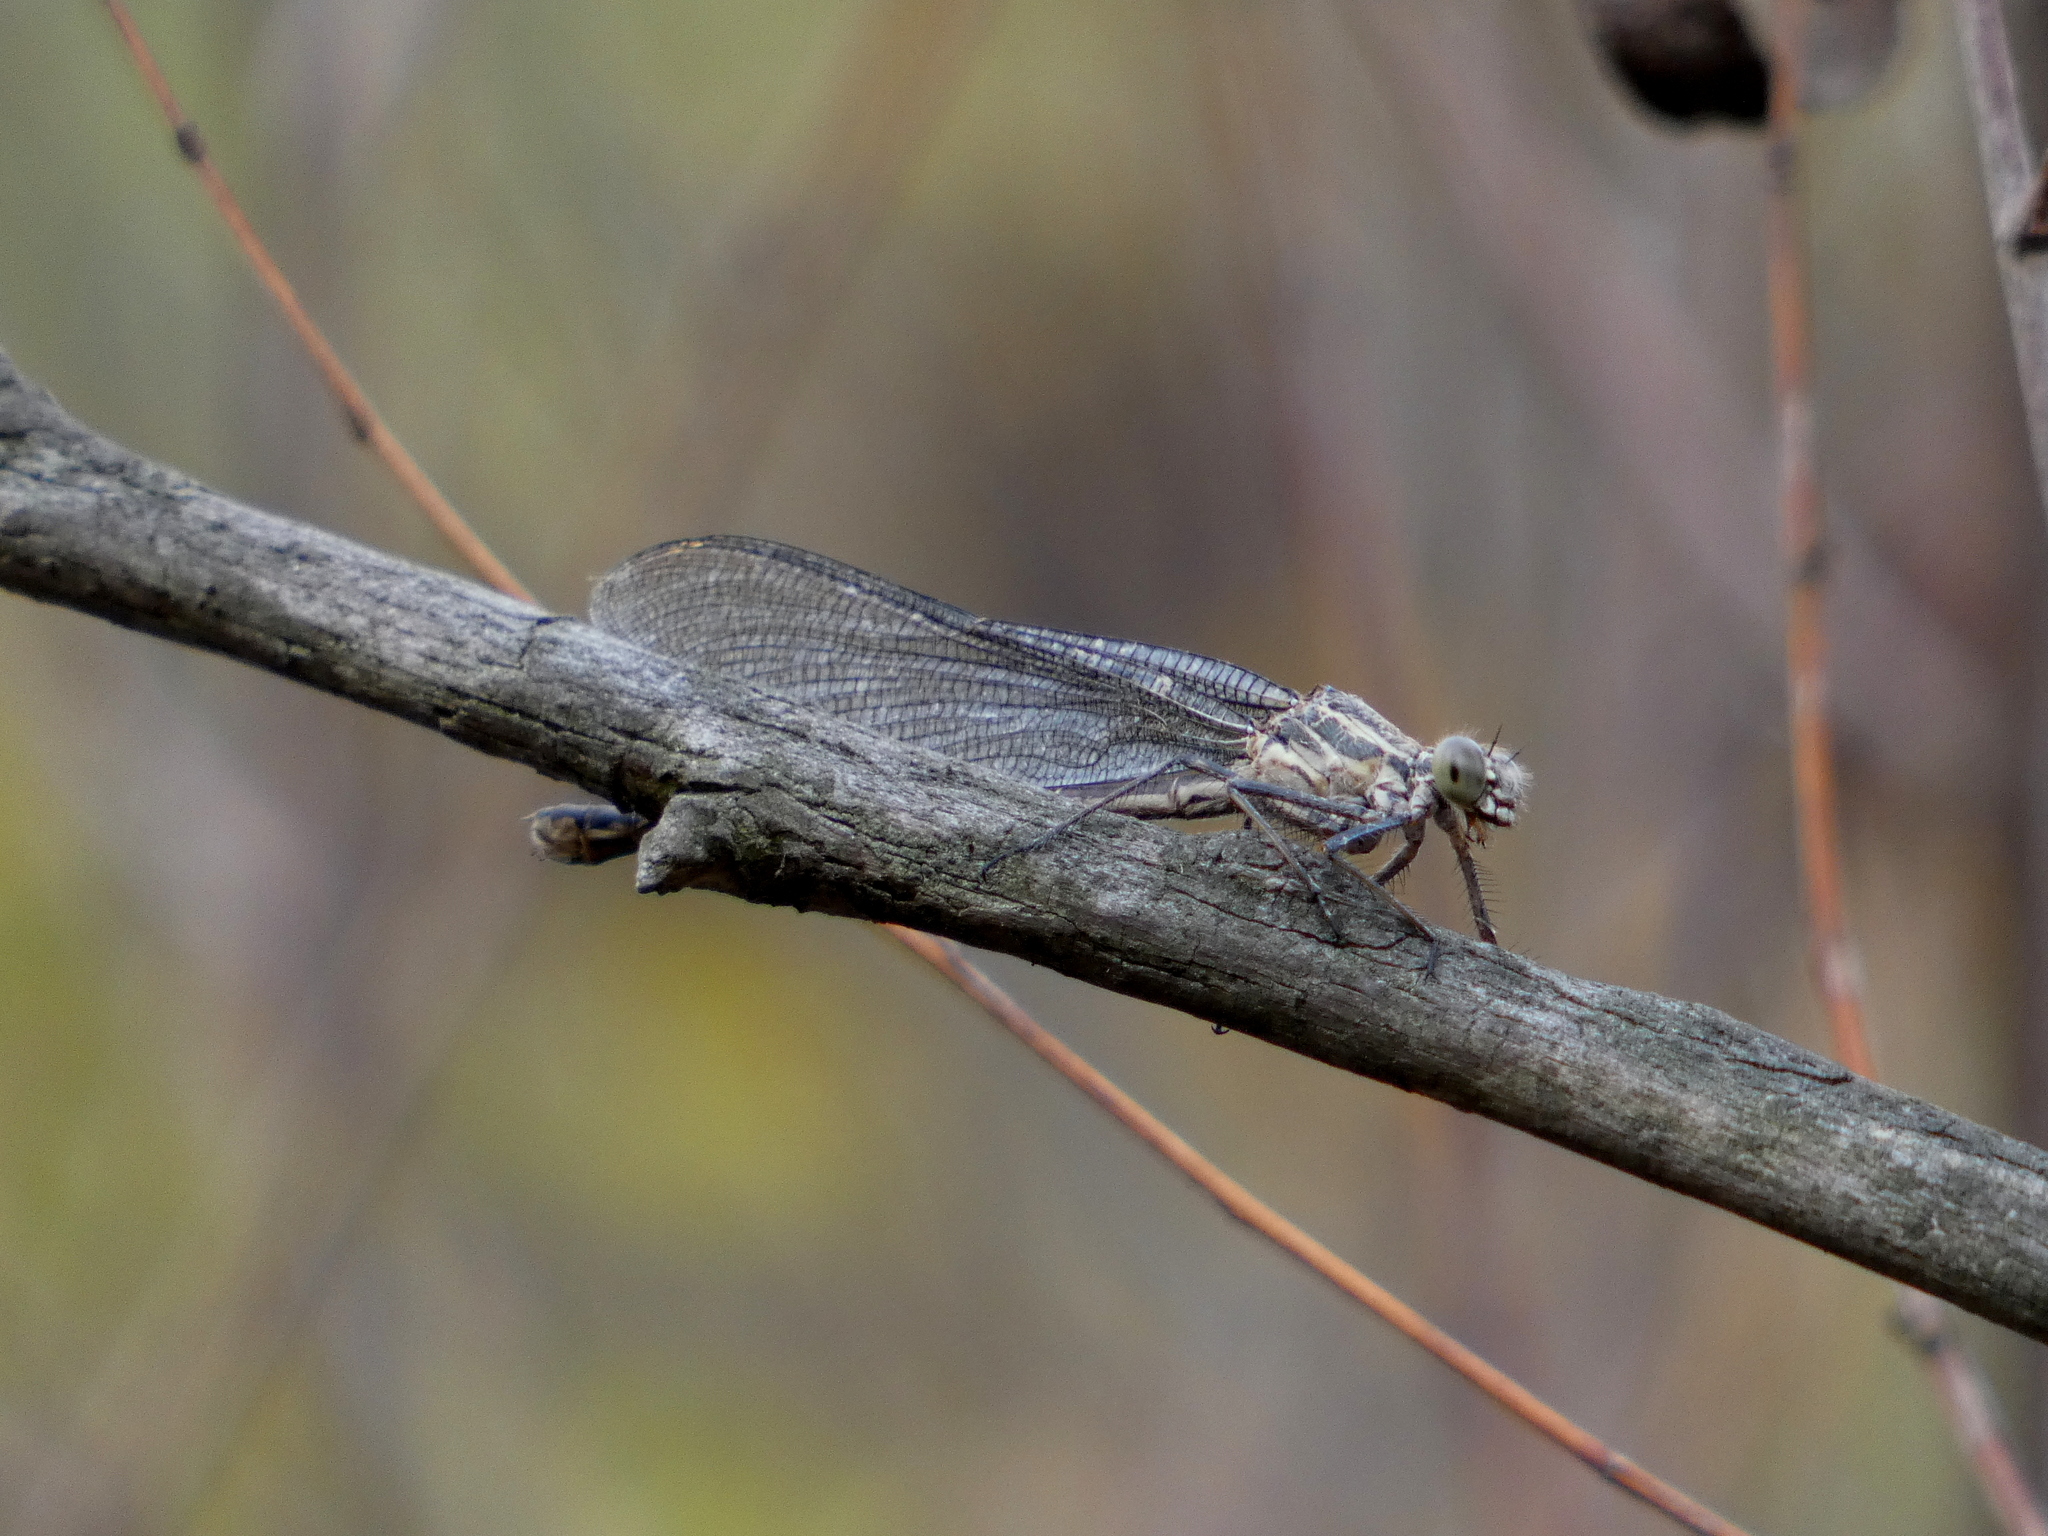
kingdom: Animalia
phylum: Arthropoda
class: Insecta
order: Odonata
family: Calopterygidae
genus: Hetaerina
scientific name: Hetaerina americana
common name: American rubyspot
